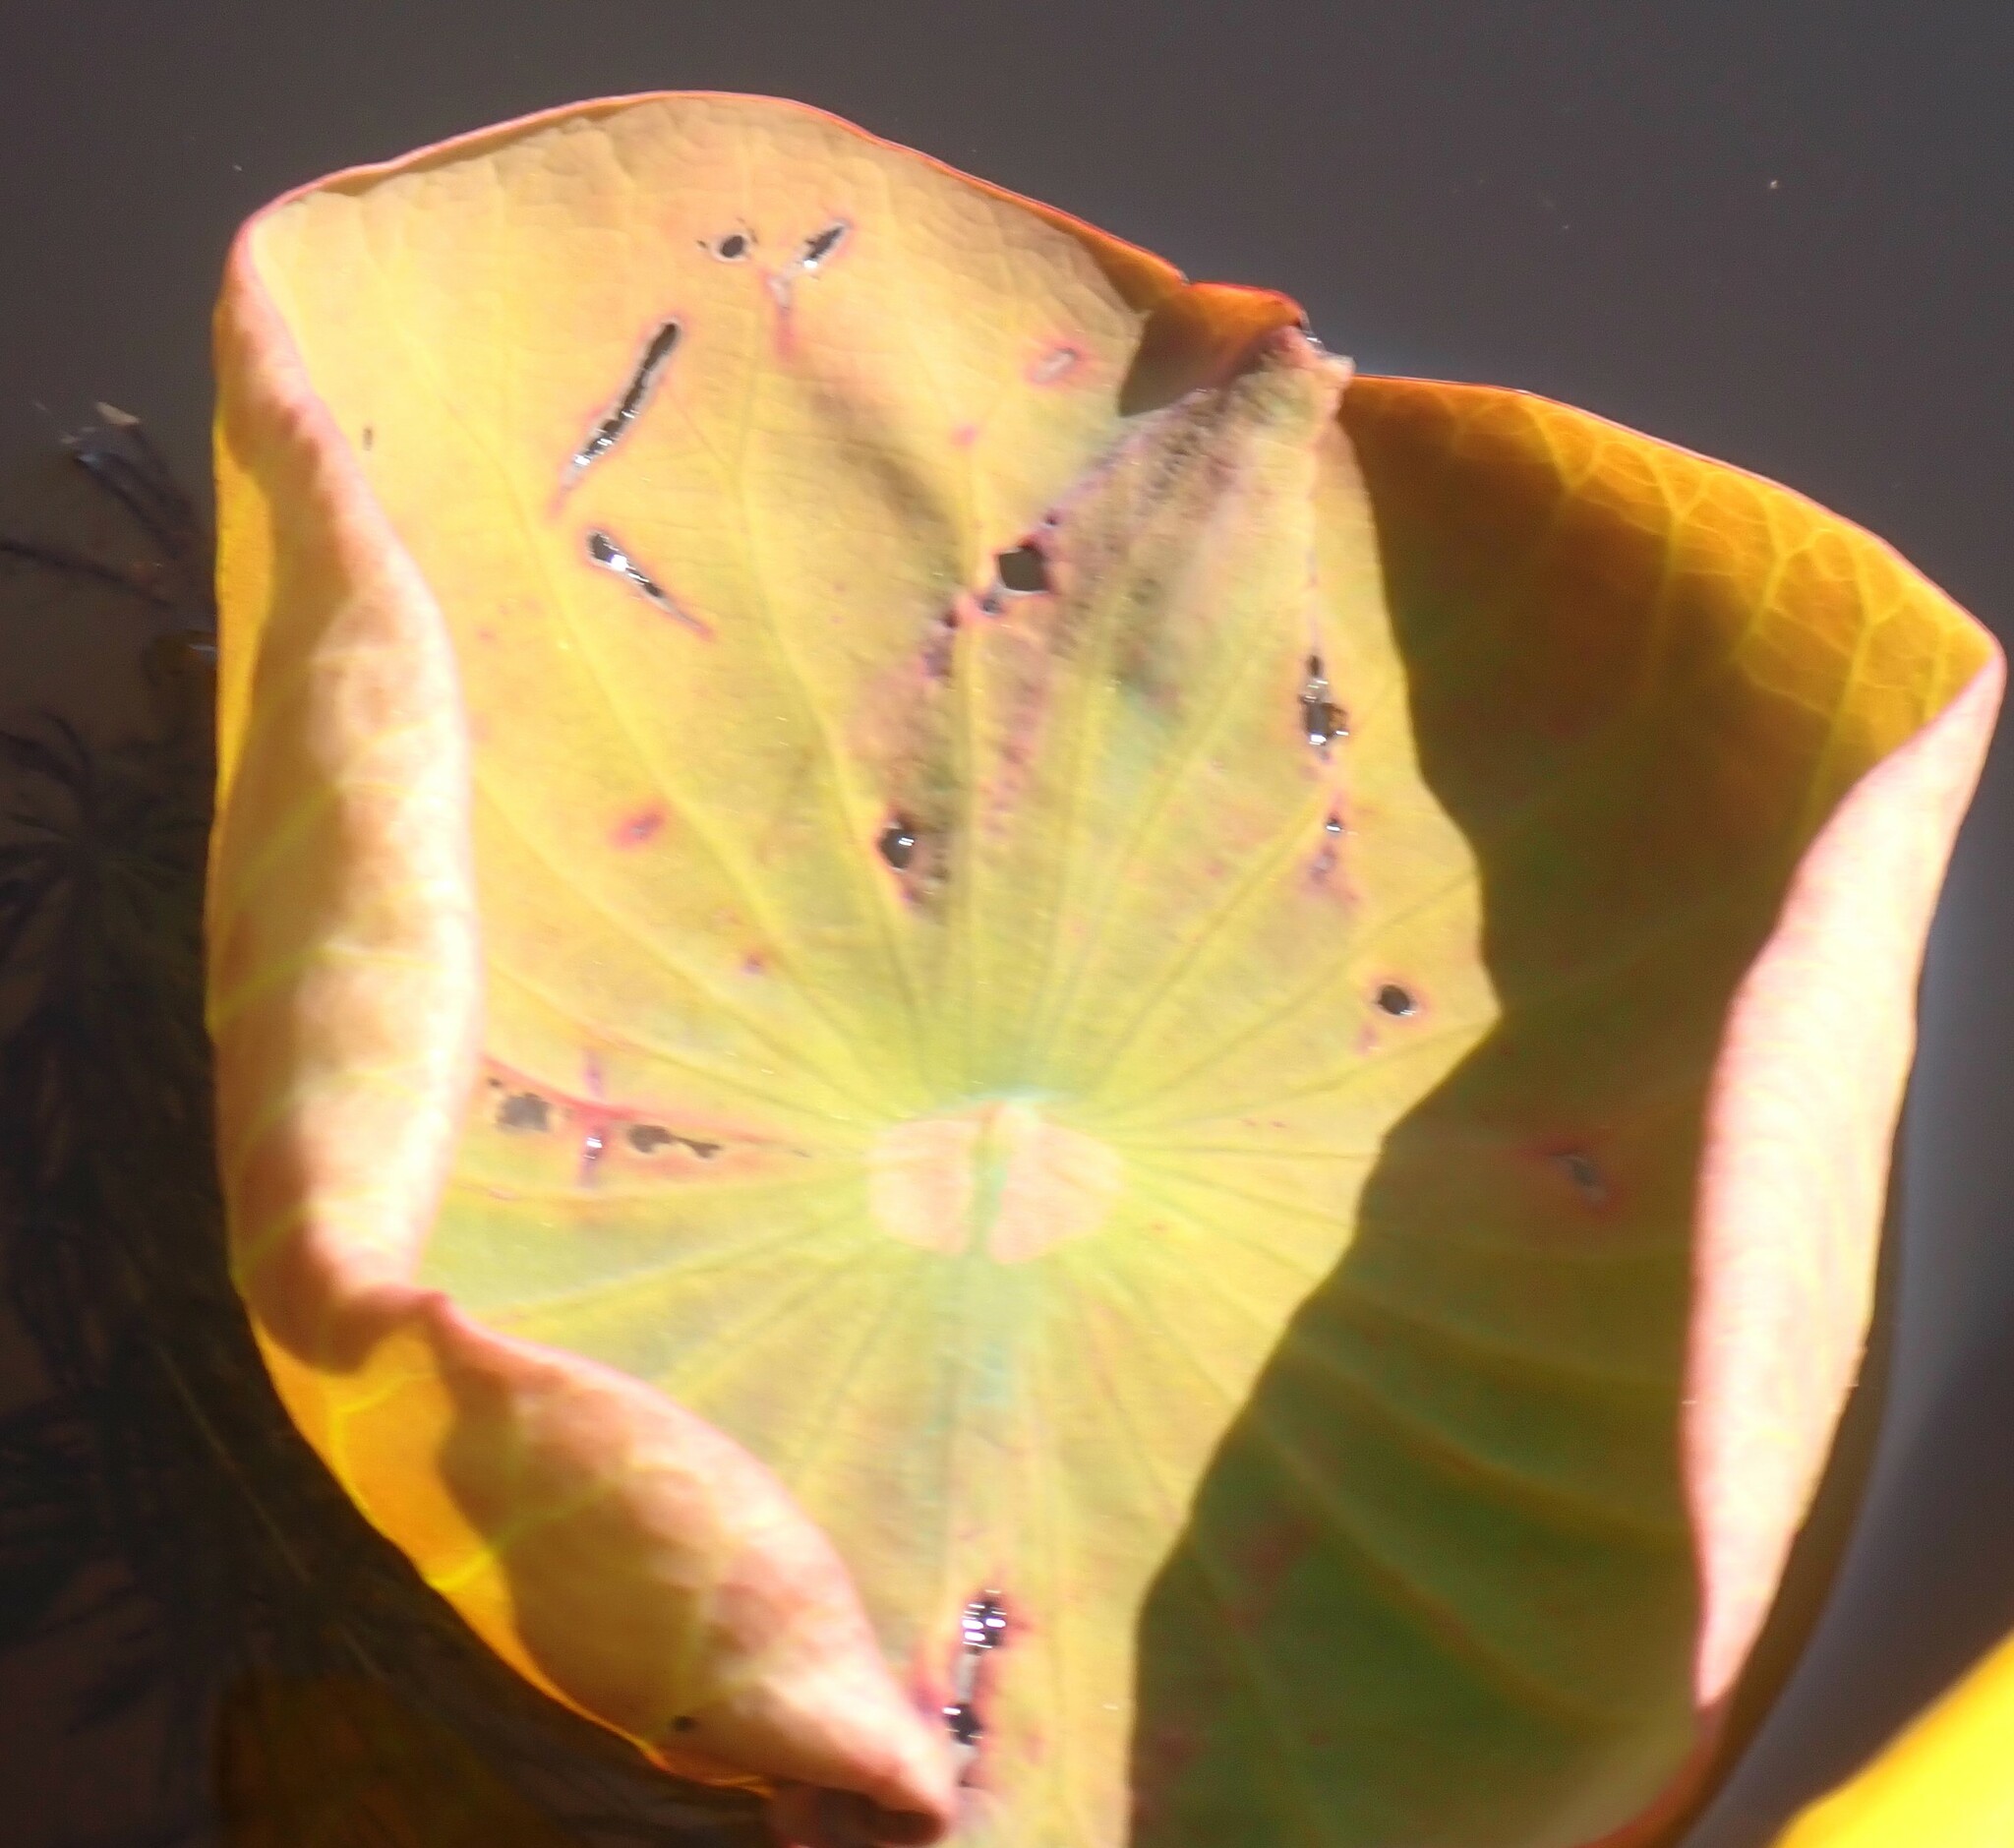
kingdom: Plantae
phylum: Tracheophyta
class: Magnoliopsida
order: Proteales
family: Nelumbonaceae
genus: Nelumbo
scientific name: Nelumbo lutea
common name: American lotus
